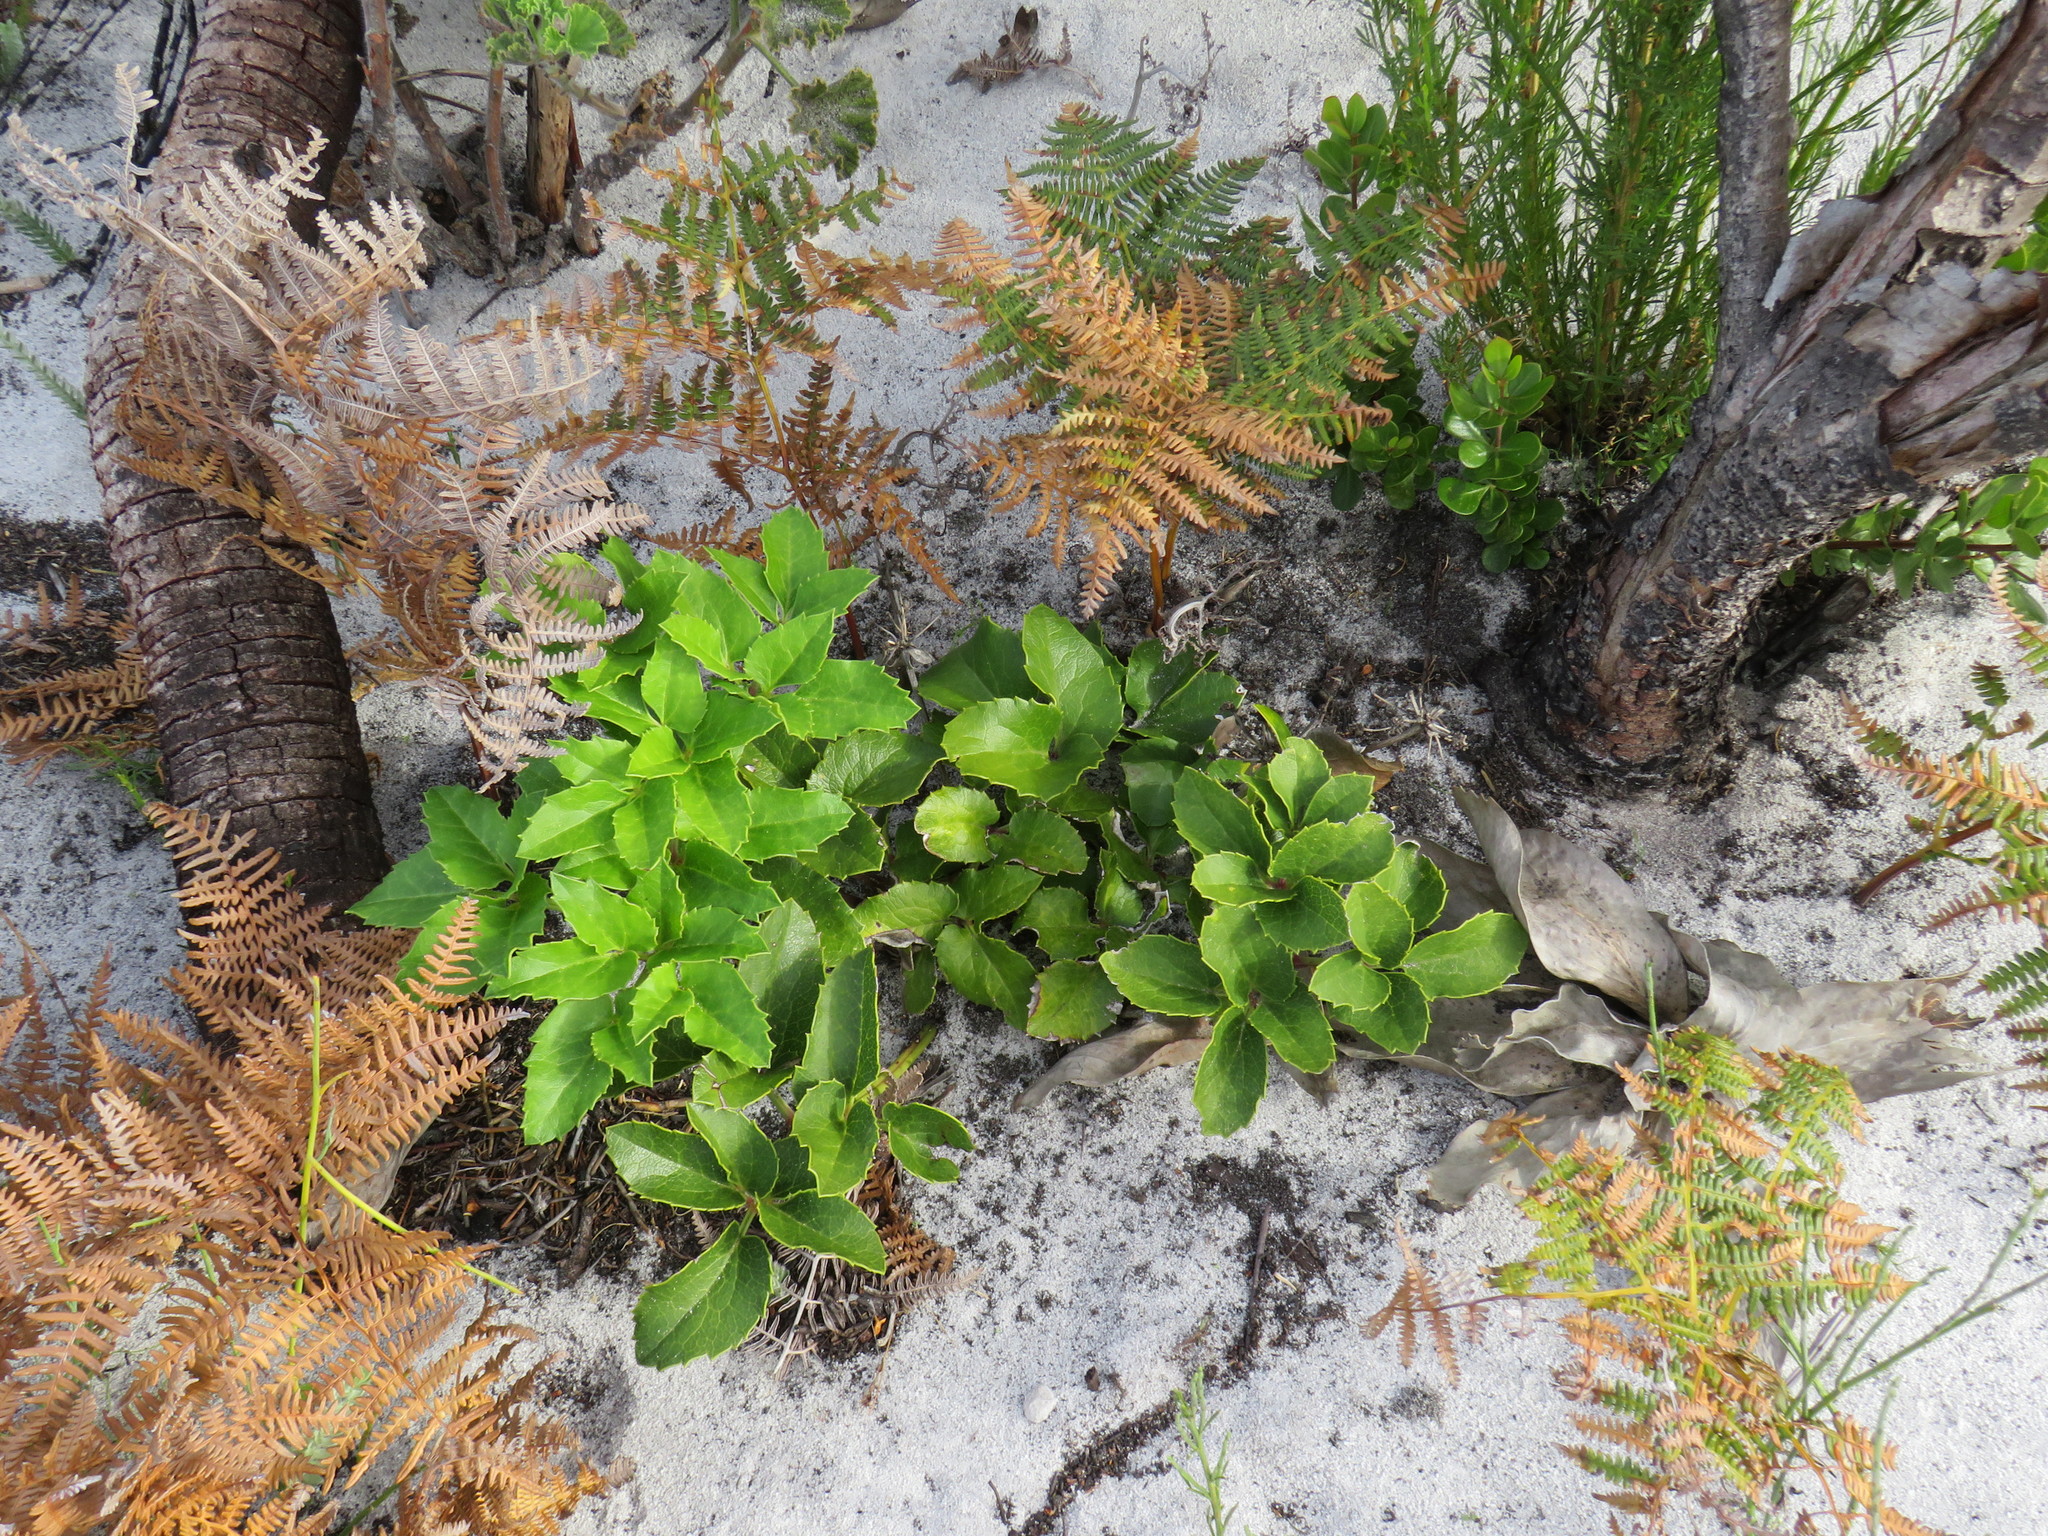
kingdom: Plantae
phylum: Tracheophyta
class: Magnoliopsida
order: Ranunculales
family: Ranunculaceae
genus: Knowltonia
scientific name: Knowltonia vesicatoria
